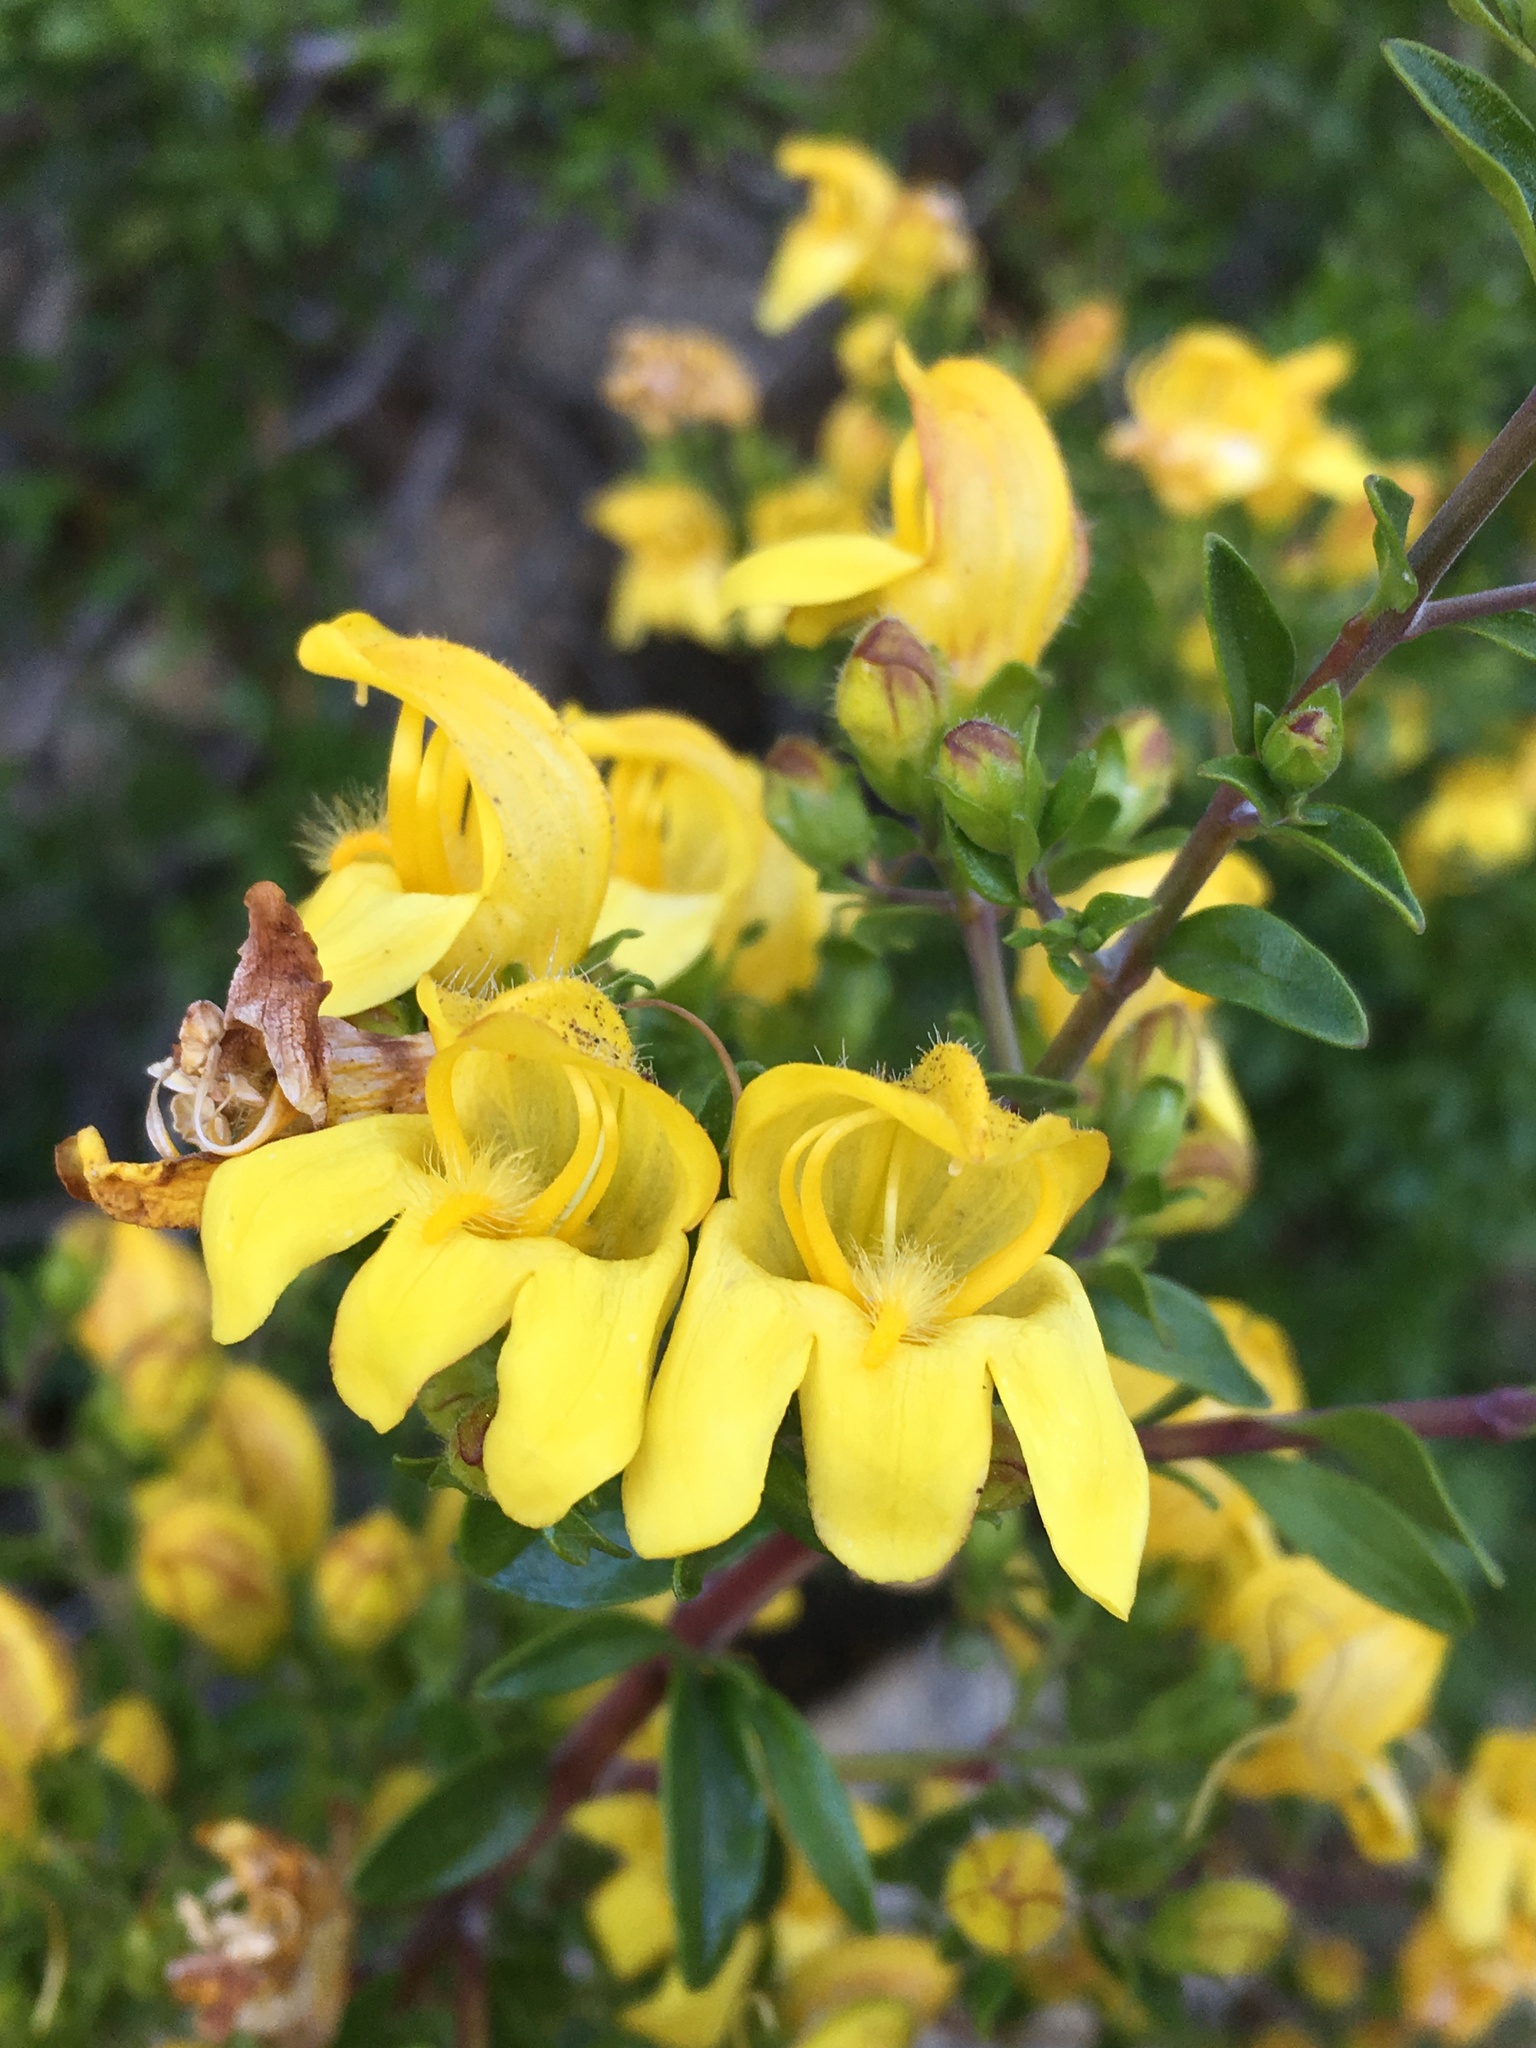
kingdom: Plantae
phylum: Tracheophyta
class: Magnoliopsida
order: Lamiales
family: Plantaginaceae
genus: Keckiella
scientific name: Keckiella antirrhinoides
